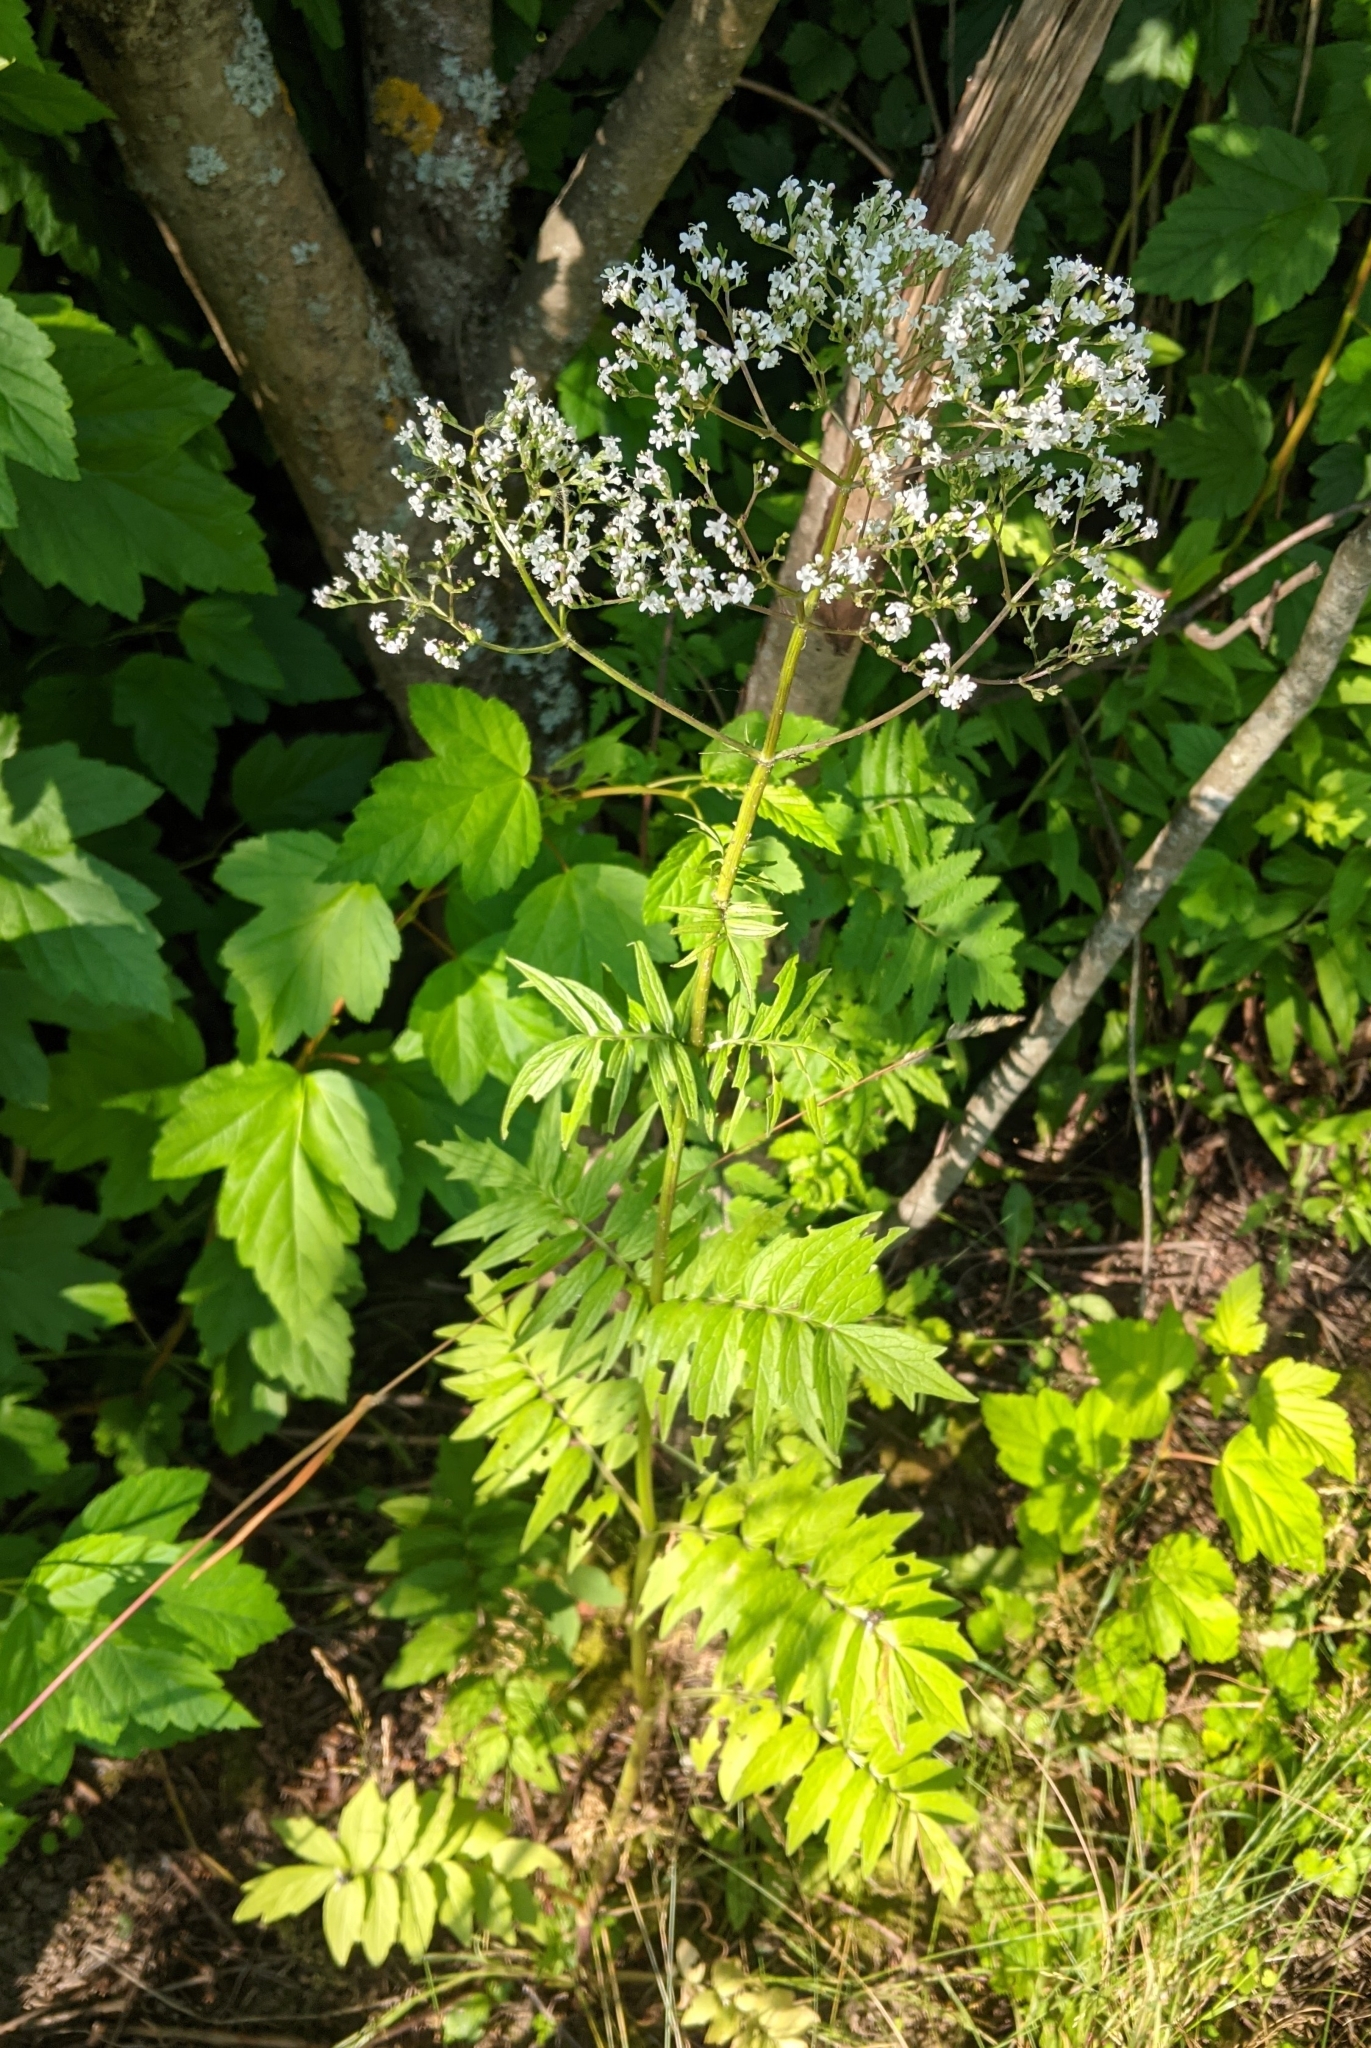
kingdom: Plantae
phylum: Tracheophyta
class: Magnoliopsida
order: Dipsacales
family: Caprifoliaceae
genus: Valeriana
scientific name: Valeriana officinalis
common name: Common valerian
